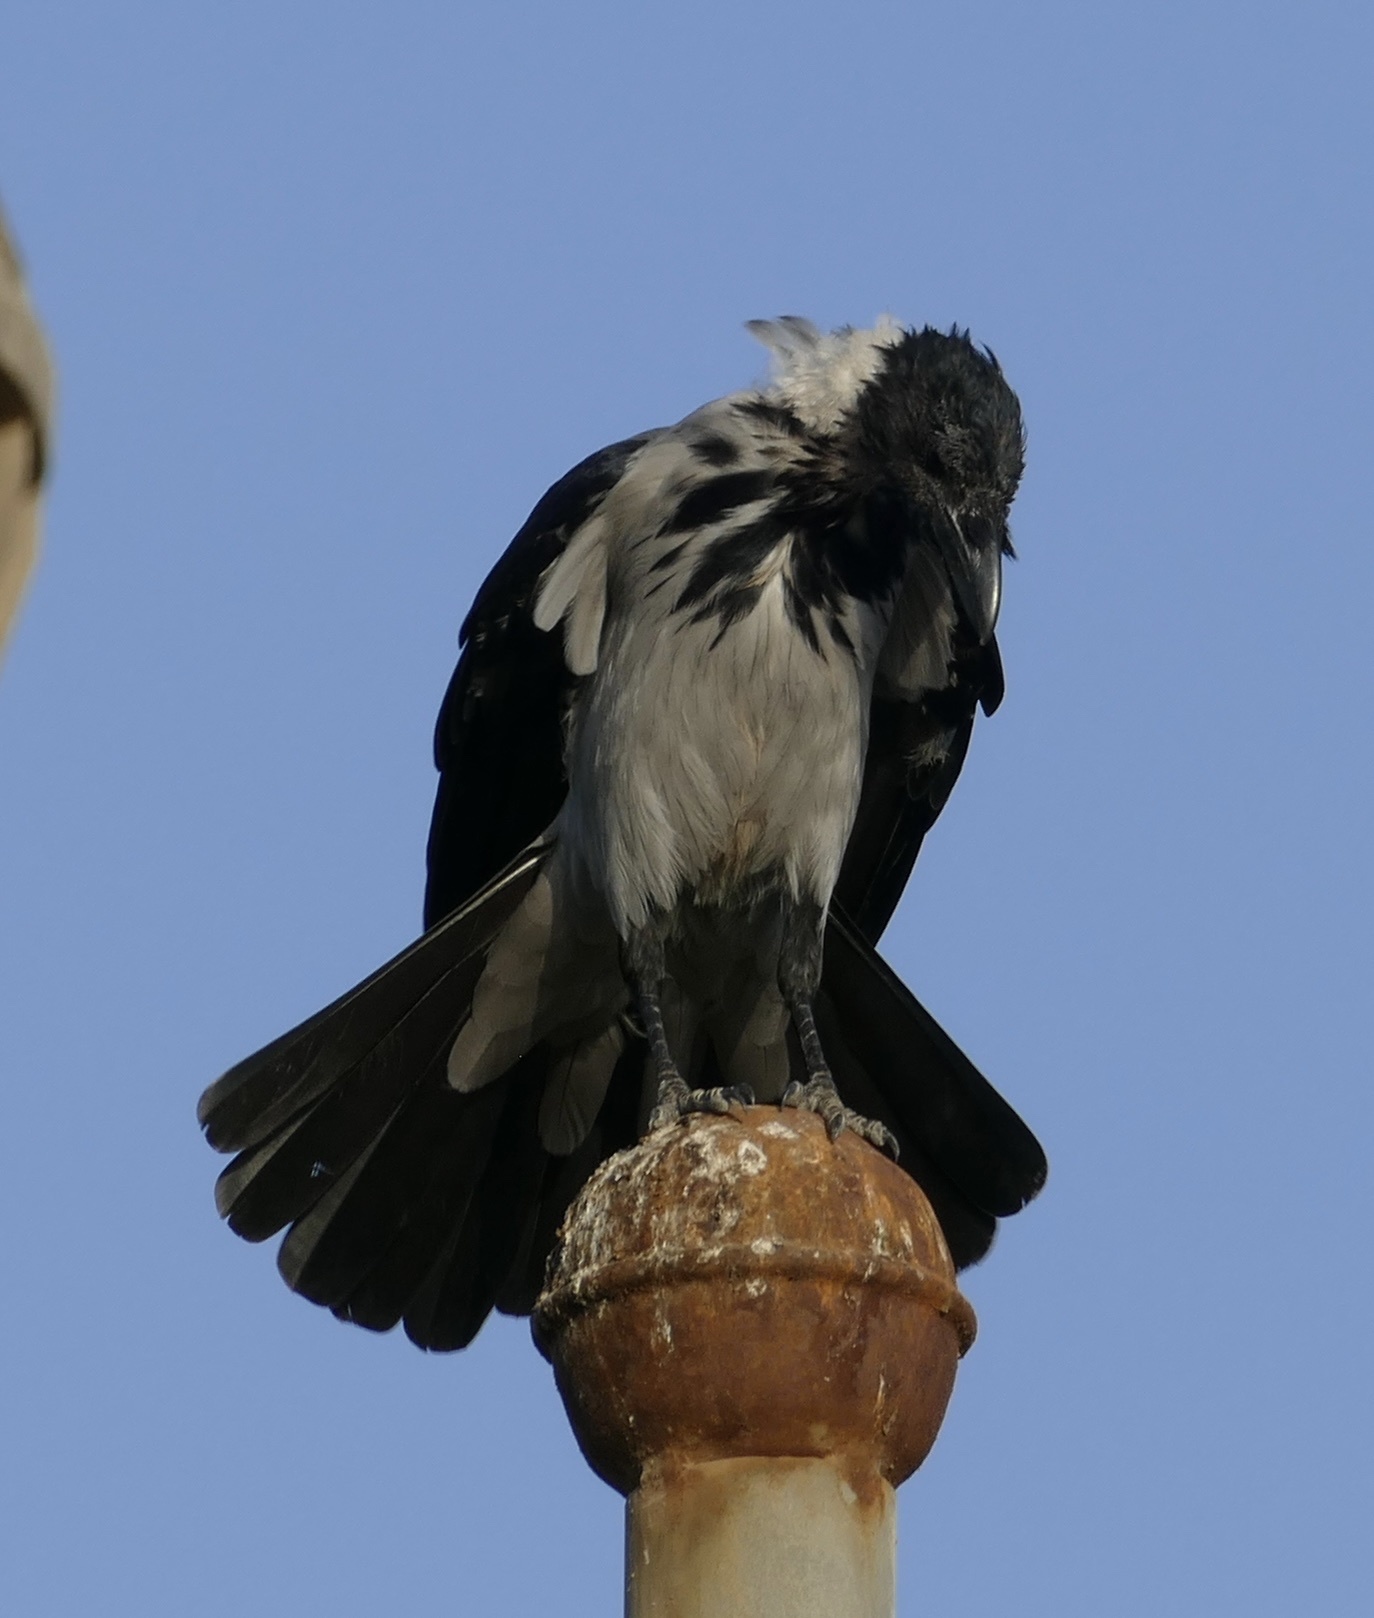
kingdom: Animalia
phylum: Chordata
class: Aves
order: Passeriformes
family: Corvidae
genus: Corvus
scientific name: Corvus cornix
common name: Hooded crow
